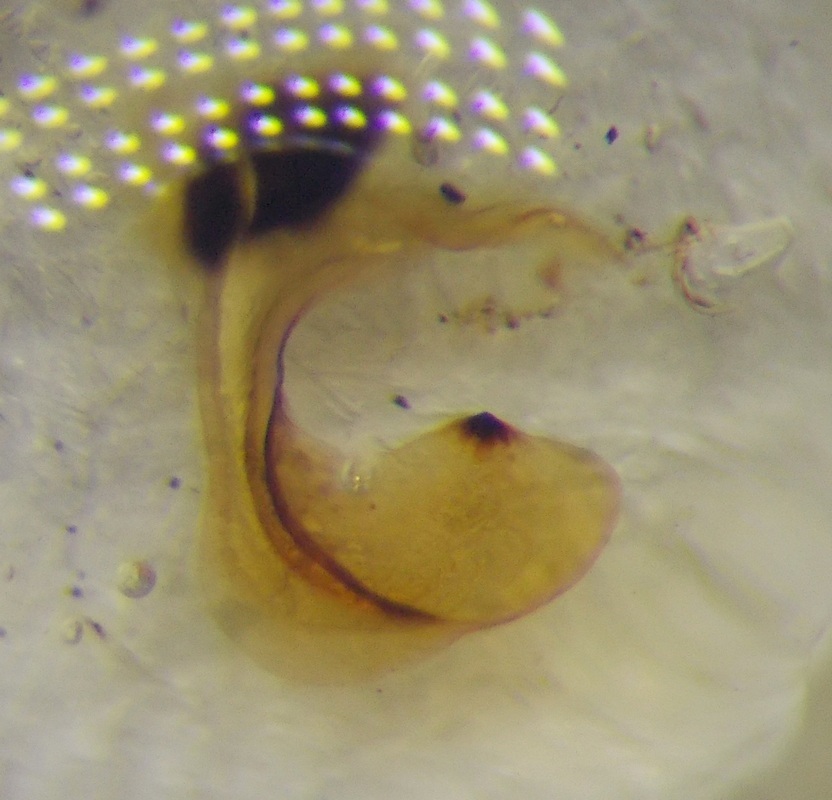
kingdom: Animalia
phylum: Arthropoda
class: Insecta
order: Hemiptera
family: Pentatomidae
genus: Carpocoris
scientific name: Carpocoris purpureipennis
